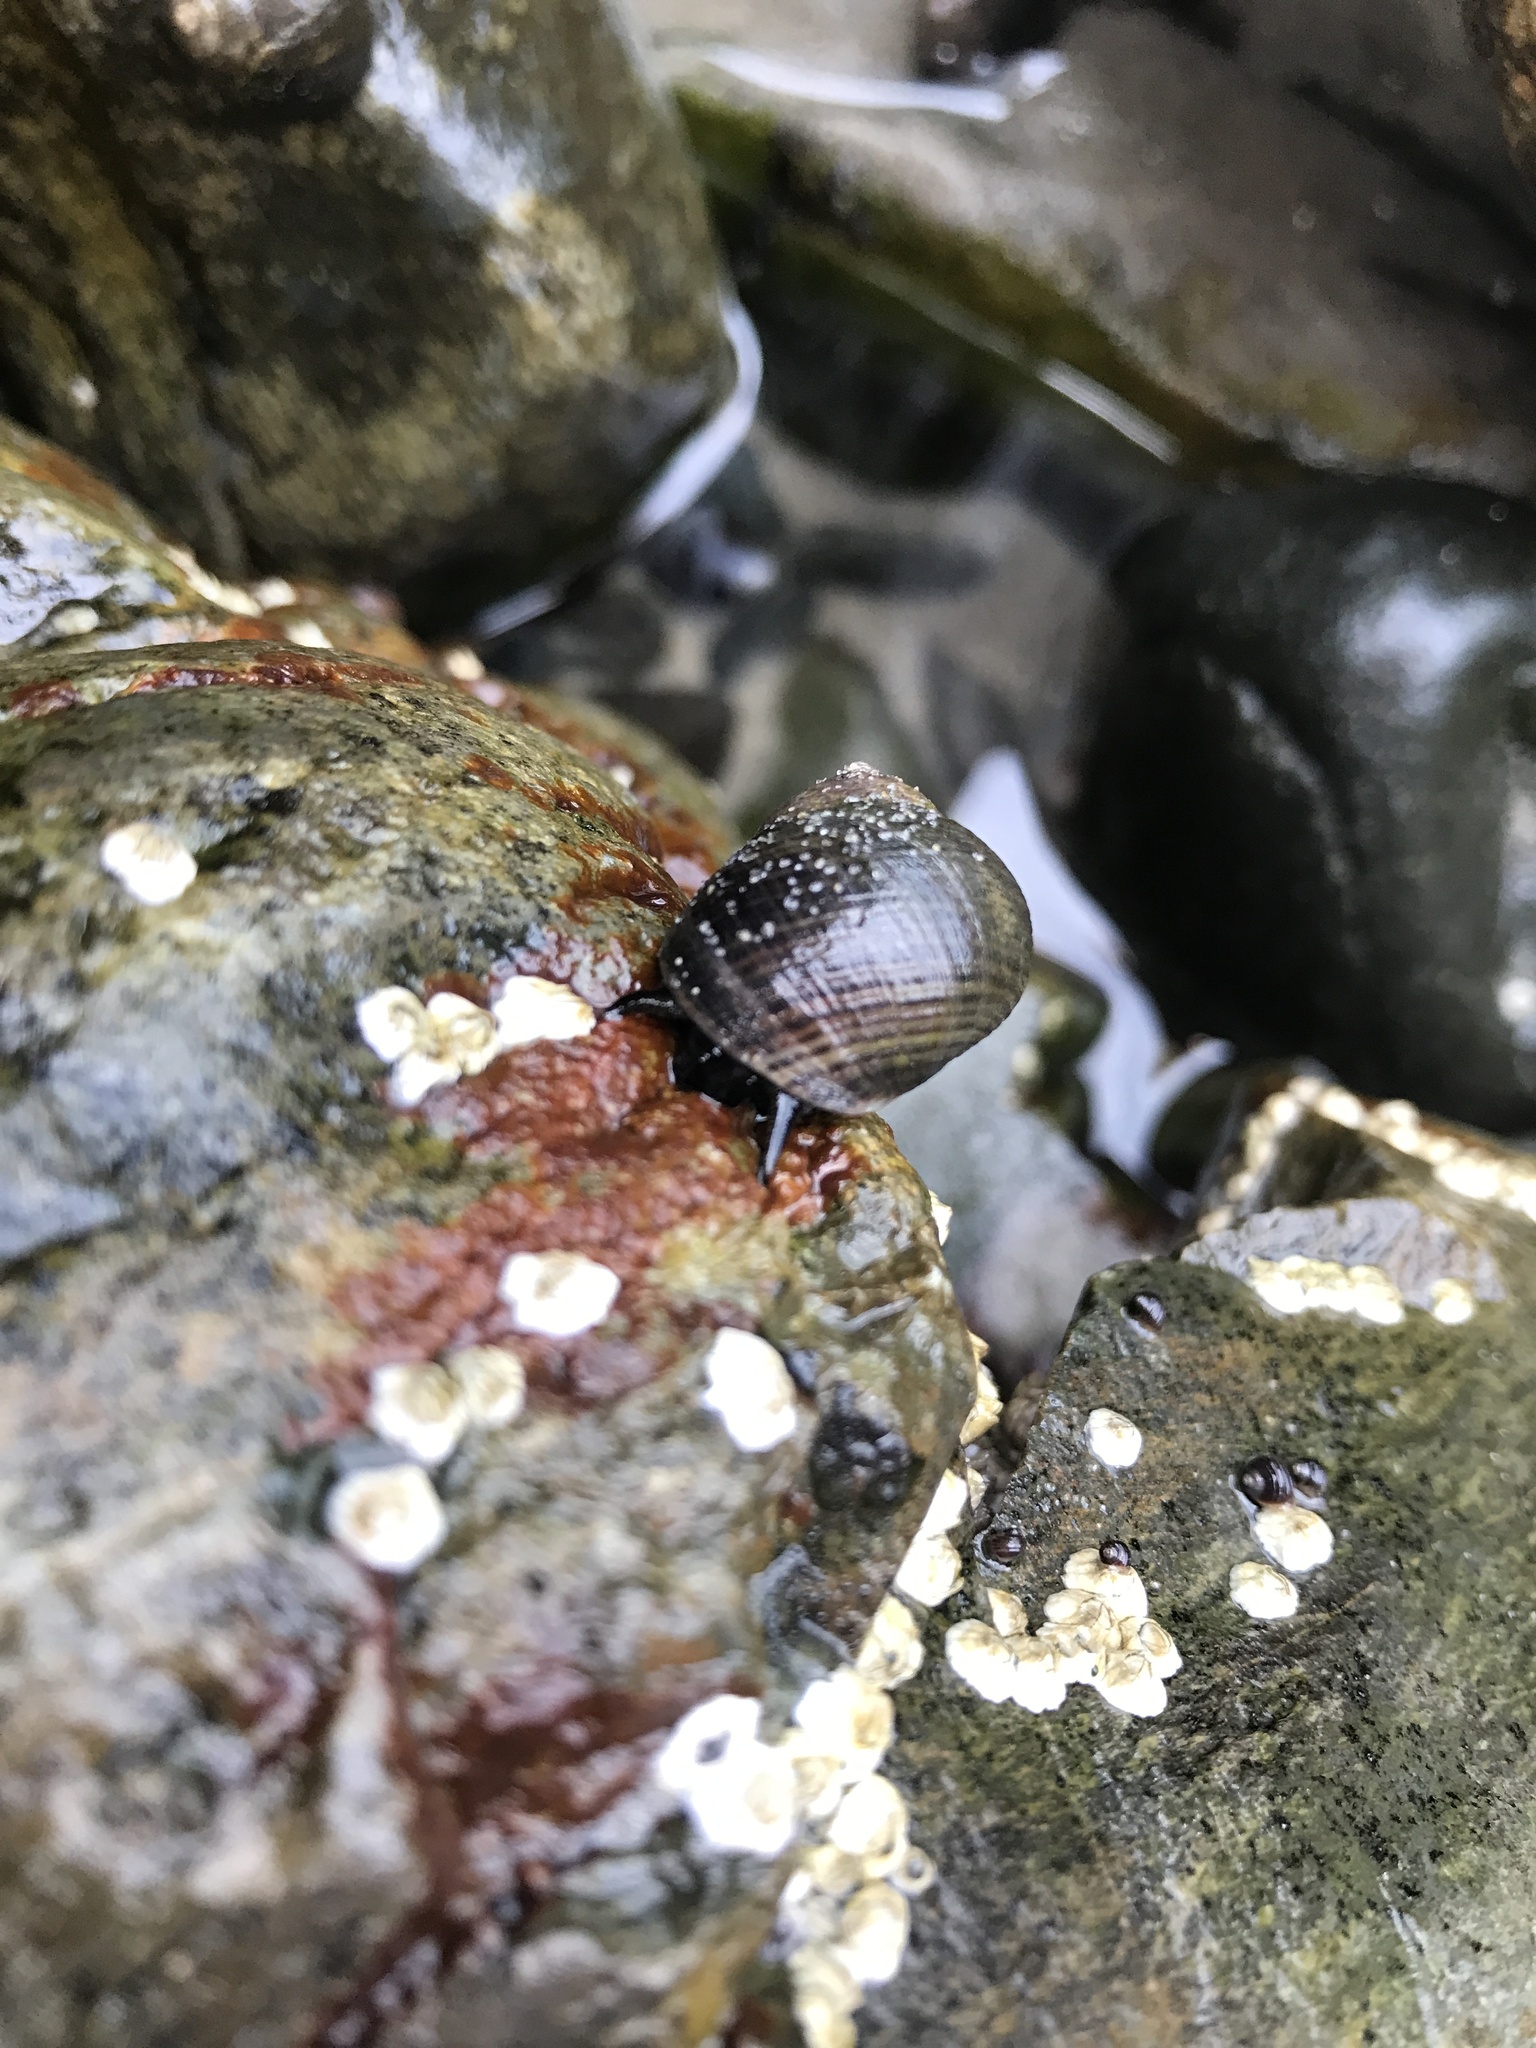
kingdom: Animalia
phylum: Mollusca
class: Gastropoda
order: Littorinimorpha
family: Littorinidae
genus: Littorina
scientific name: Littorina littorea
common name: Common periwinkle
